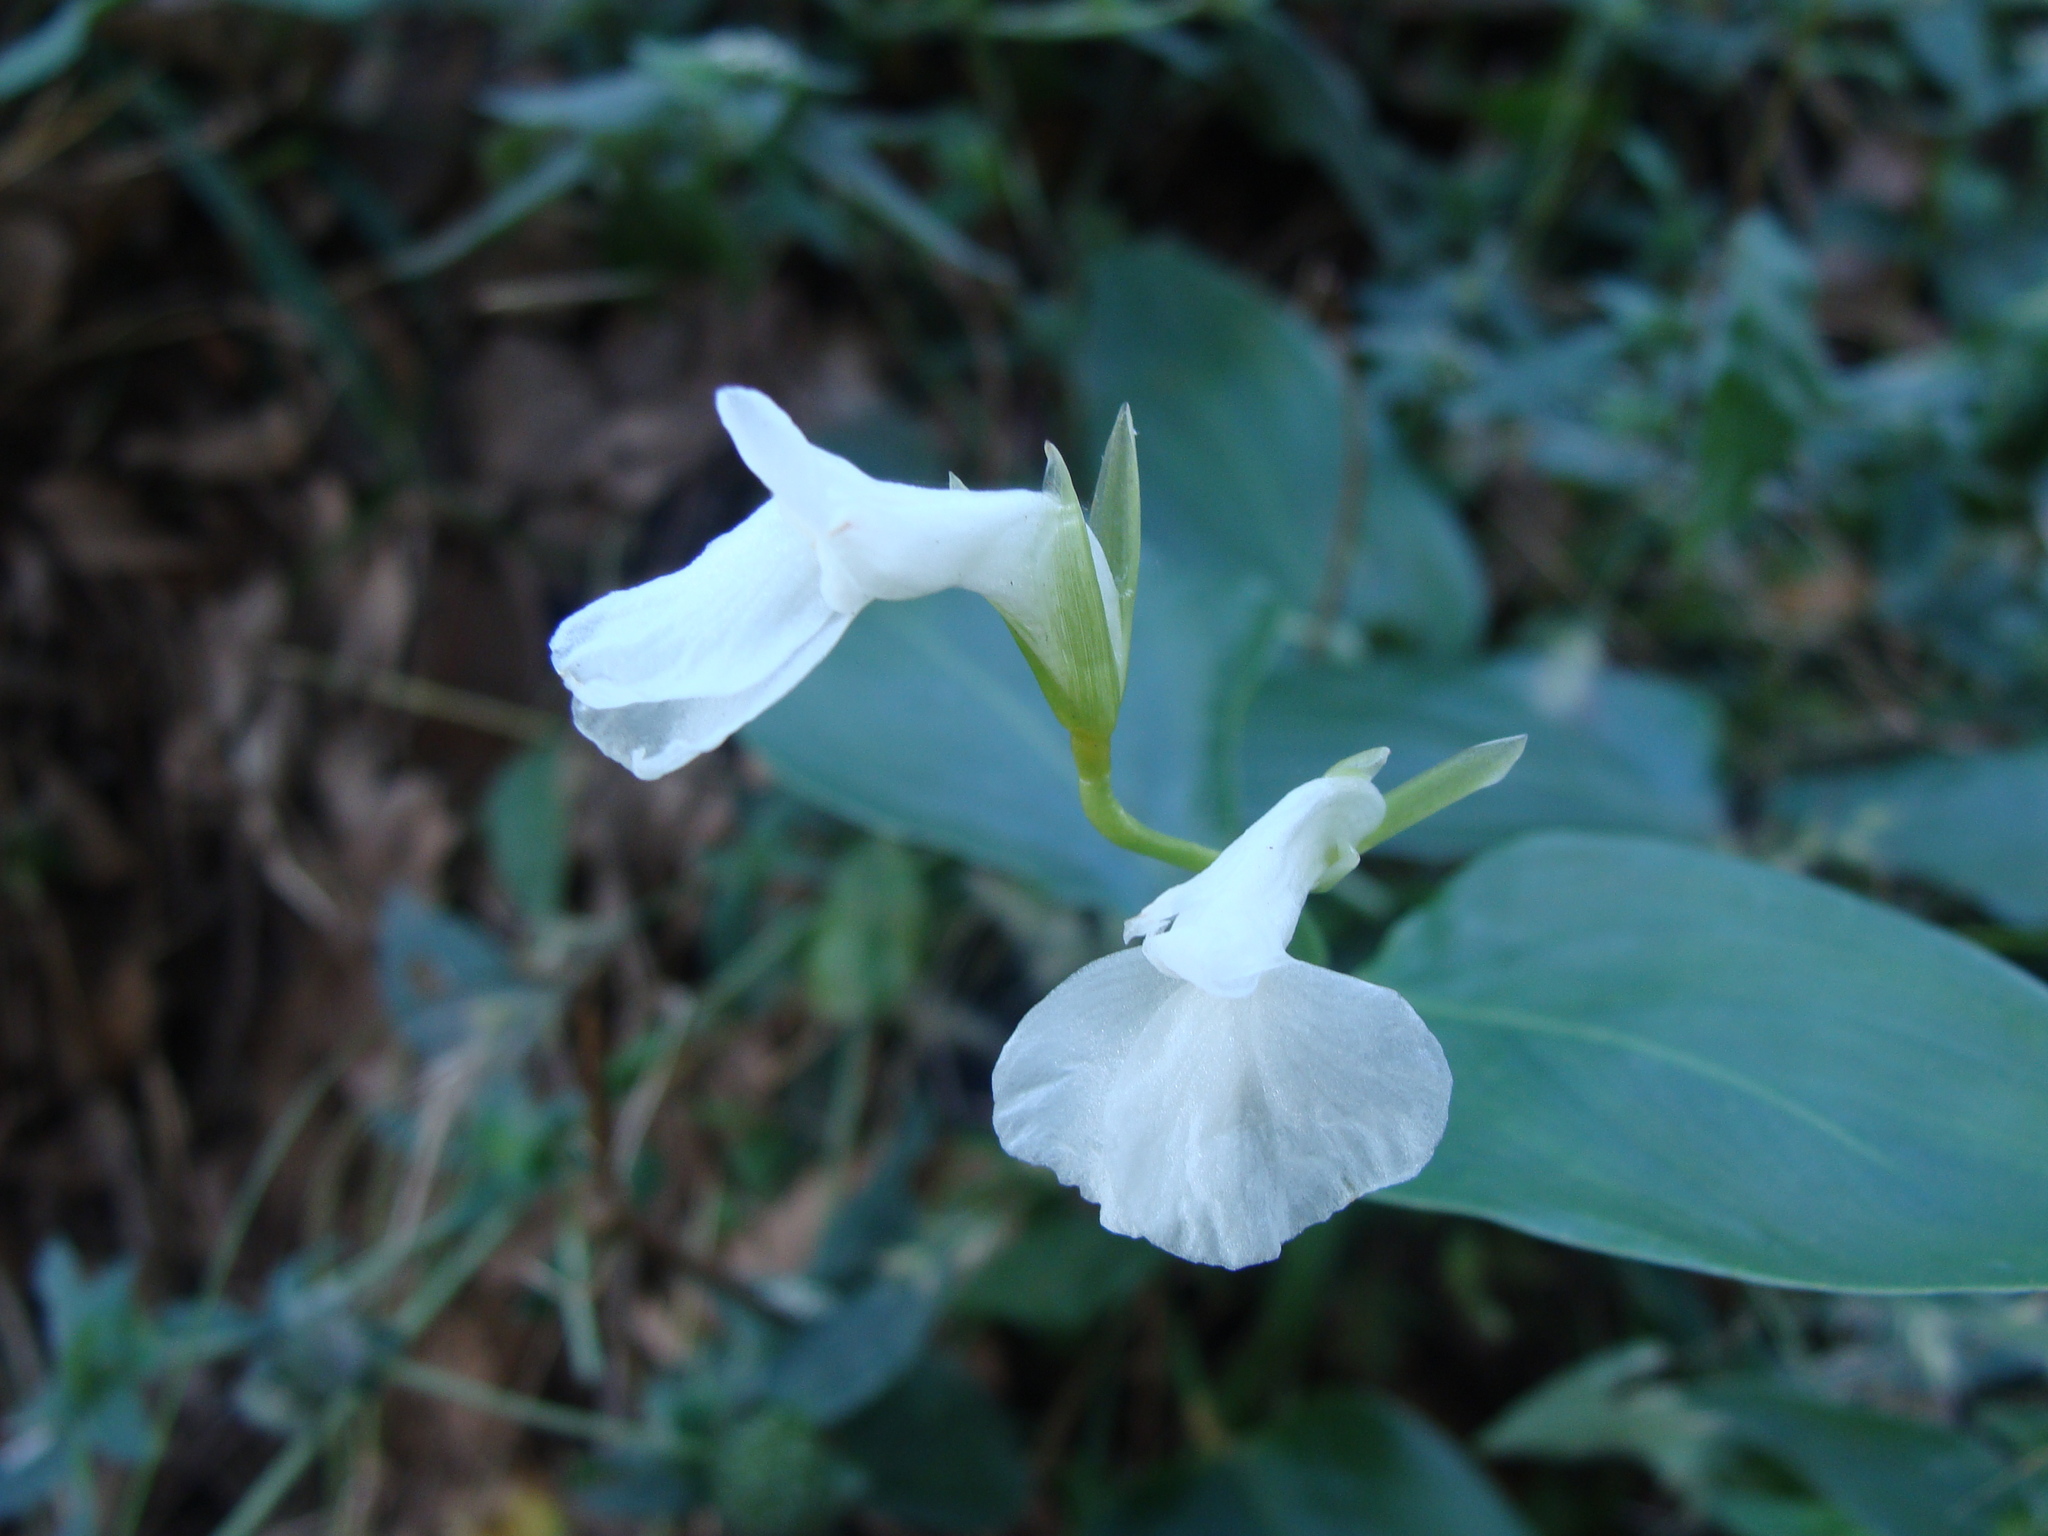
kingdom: Plantae
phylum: Tracheophyta
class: Liliopsida
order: Zingiberales
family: Marantaceae
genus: Maranta
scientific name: Maranta arundinacea
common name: Arrowroot
